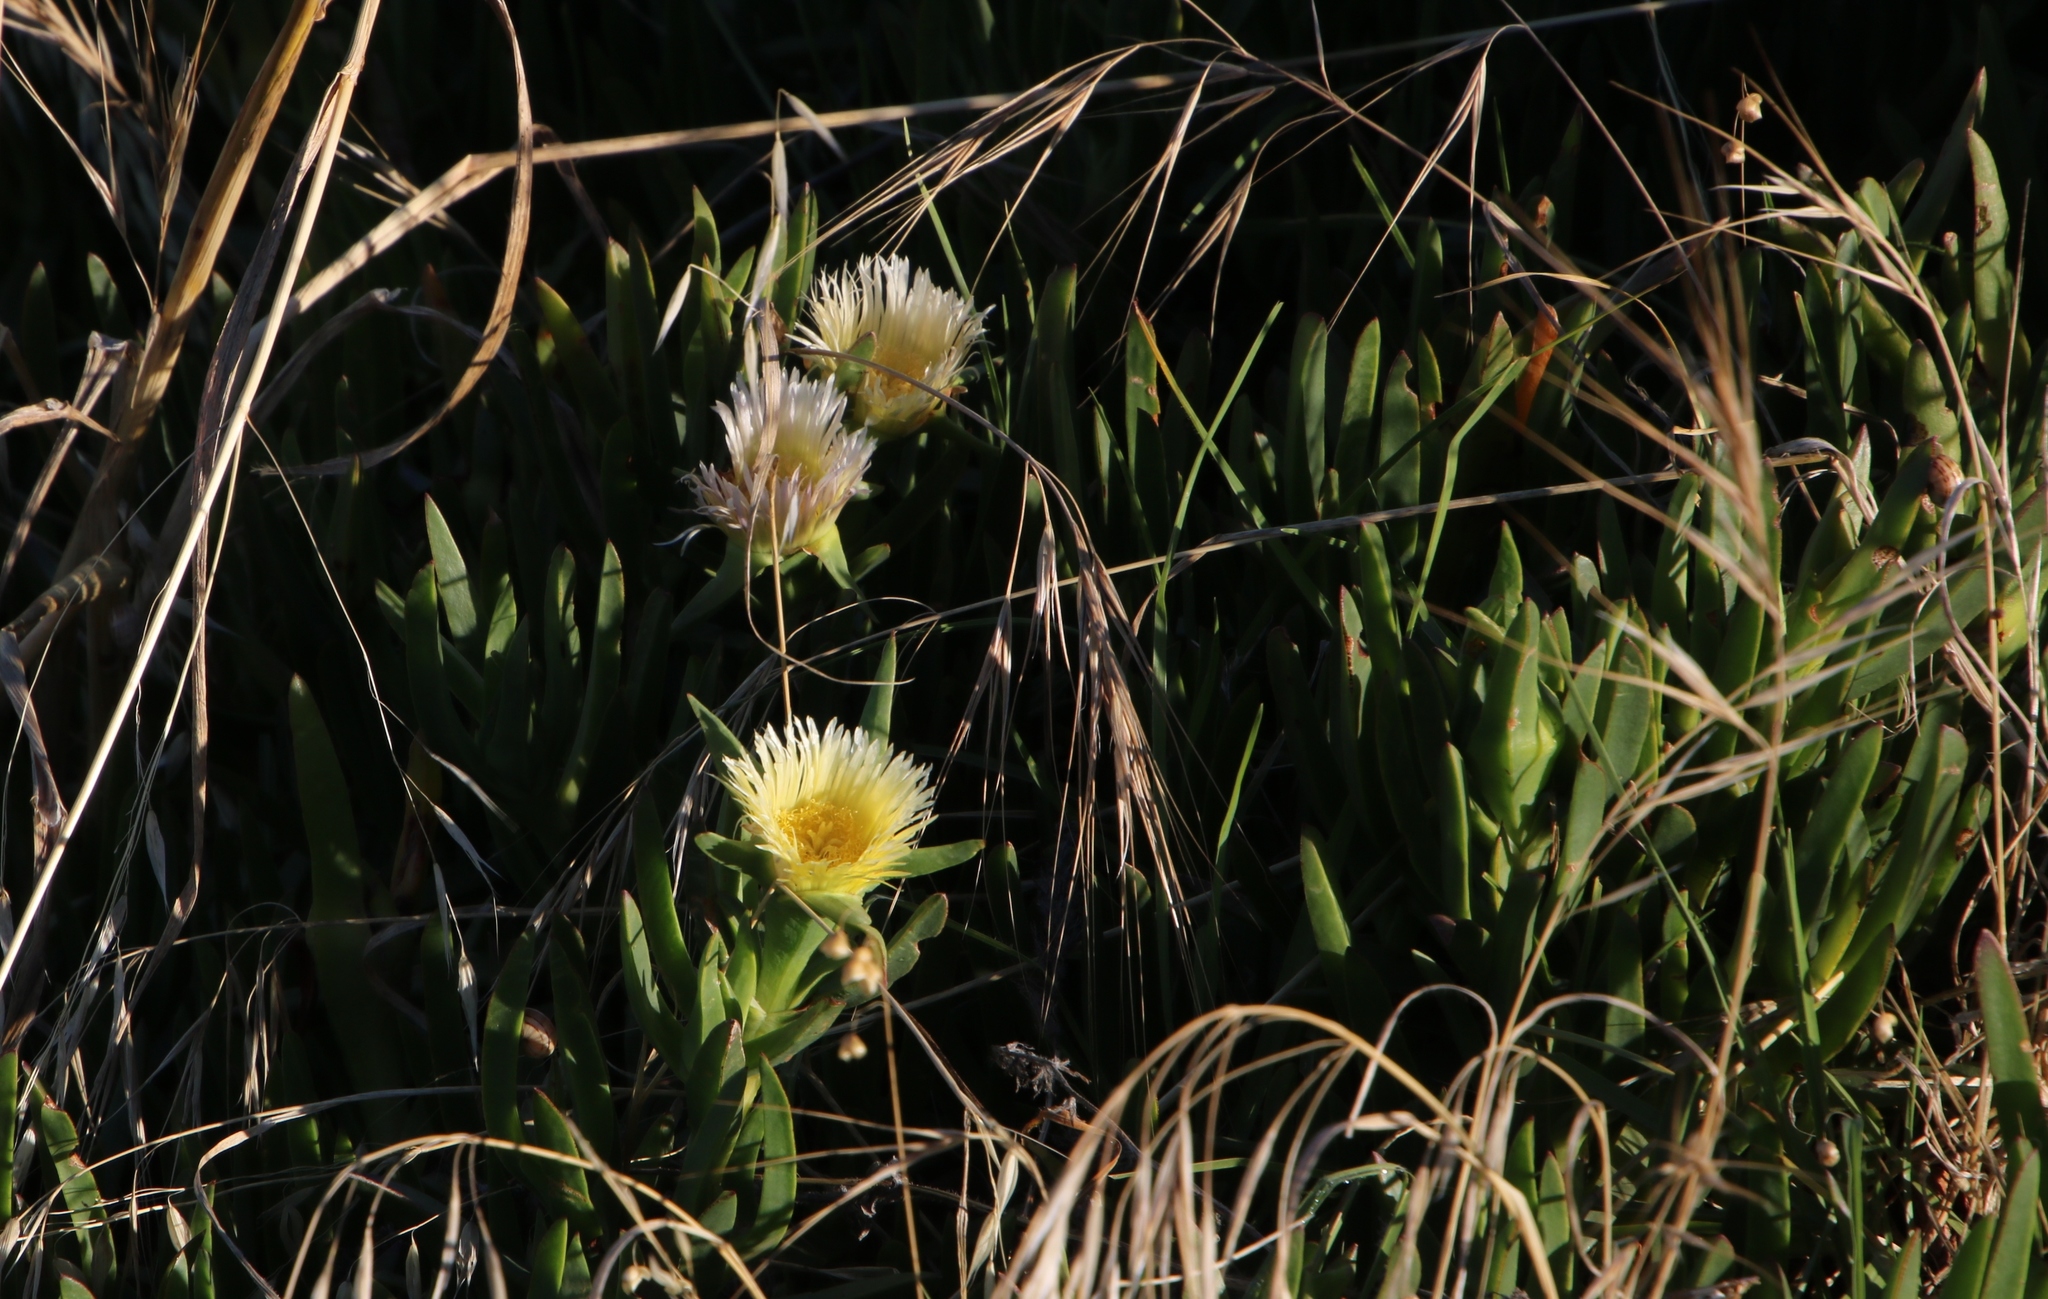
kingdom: Plantae
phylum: Tracheophyta
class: Magnoliopsida
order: Caryophyllales
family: Aizoaceae
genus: Carpobrotus
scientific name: Carpobrotus edulis
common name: Hottentot-fig
